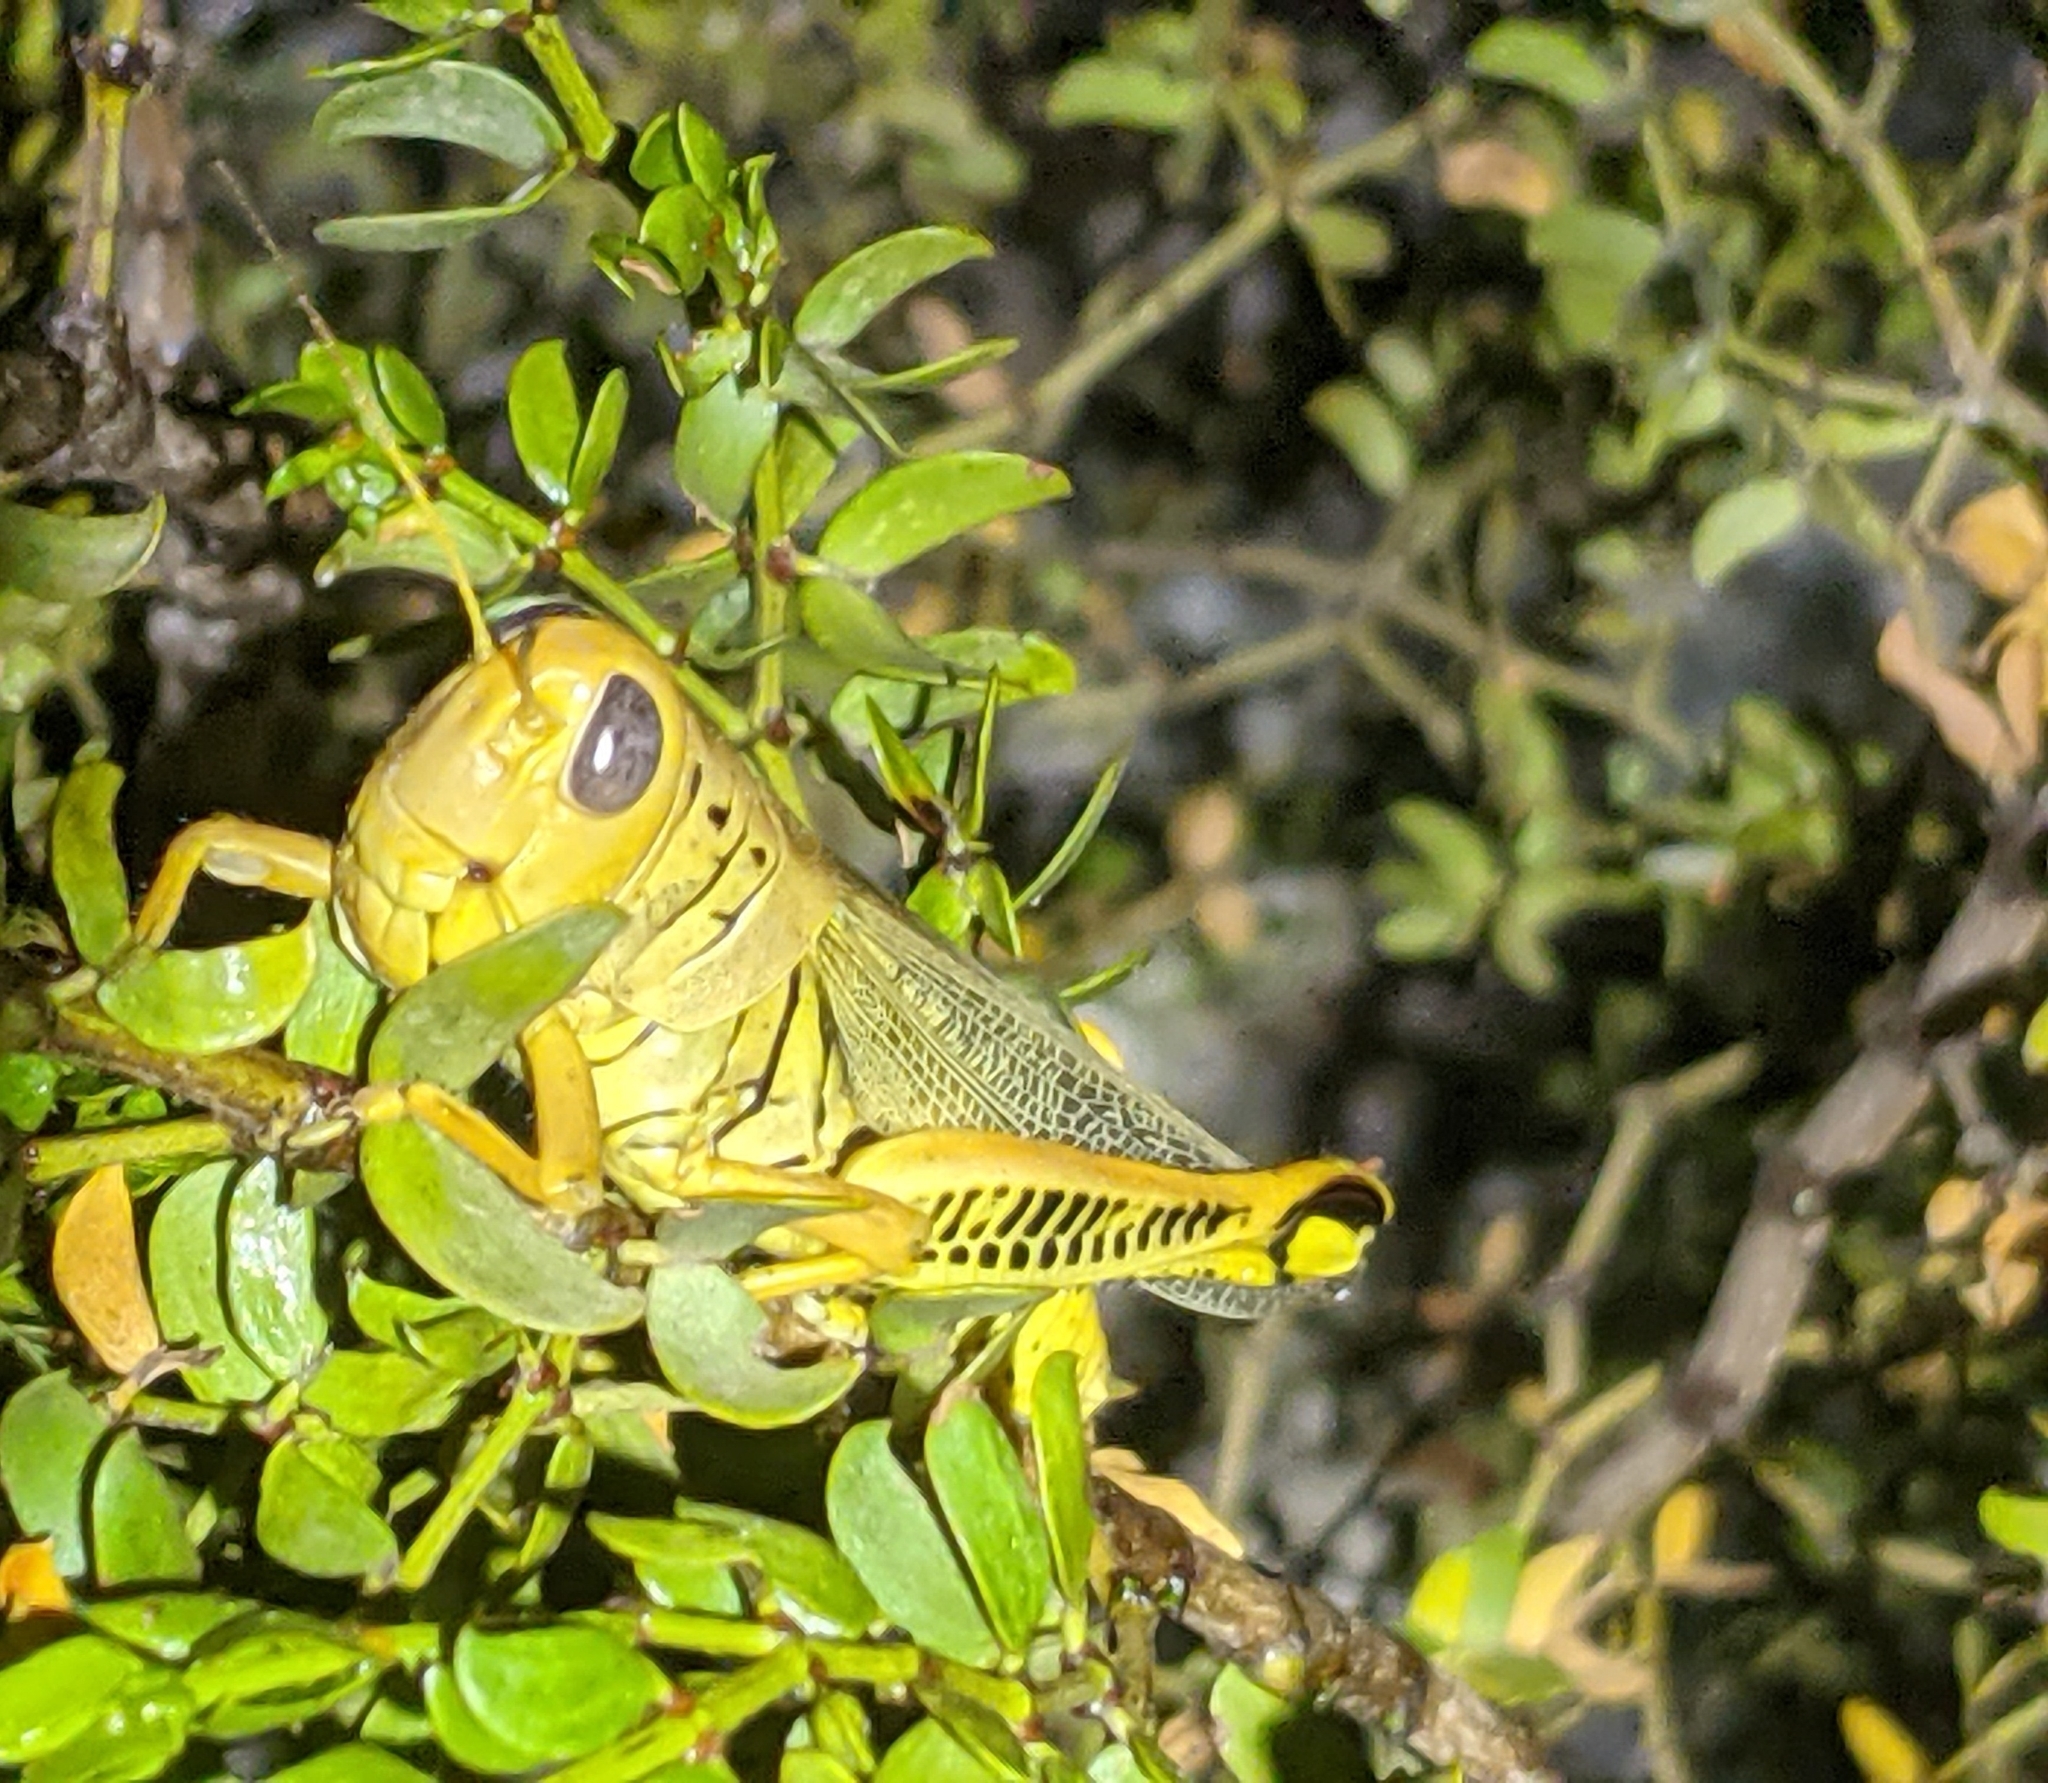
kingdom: Animalia
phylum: Arthropoda
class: Insecta
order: Orthoptera
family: Acrididae
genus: Melanoplus
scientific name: Melanoplus differentialis
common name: Differential grasshopper
